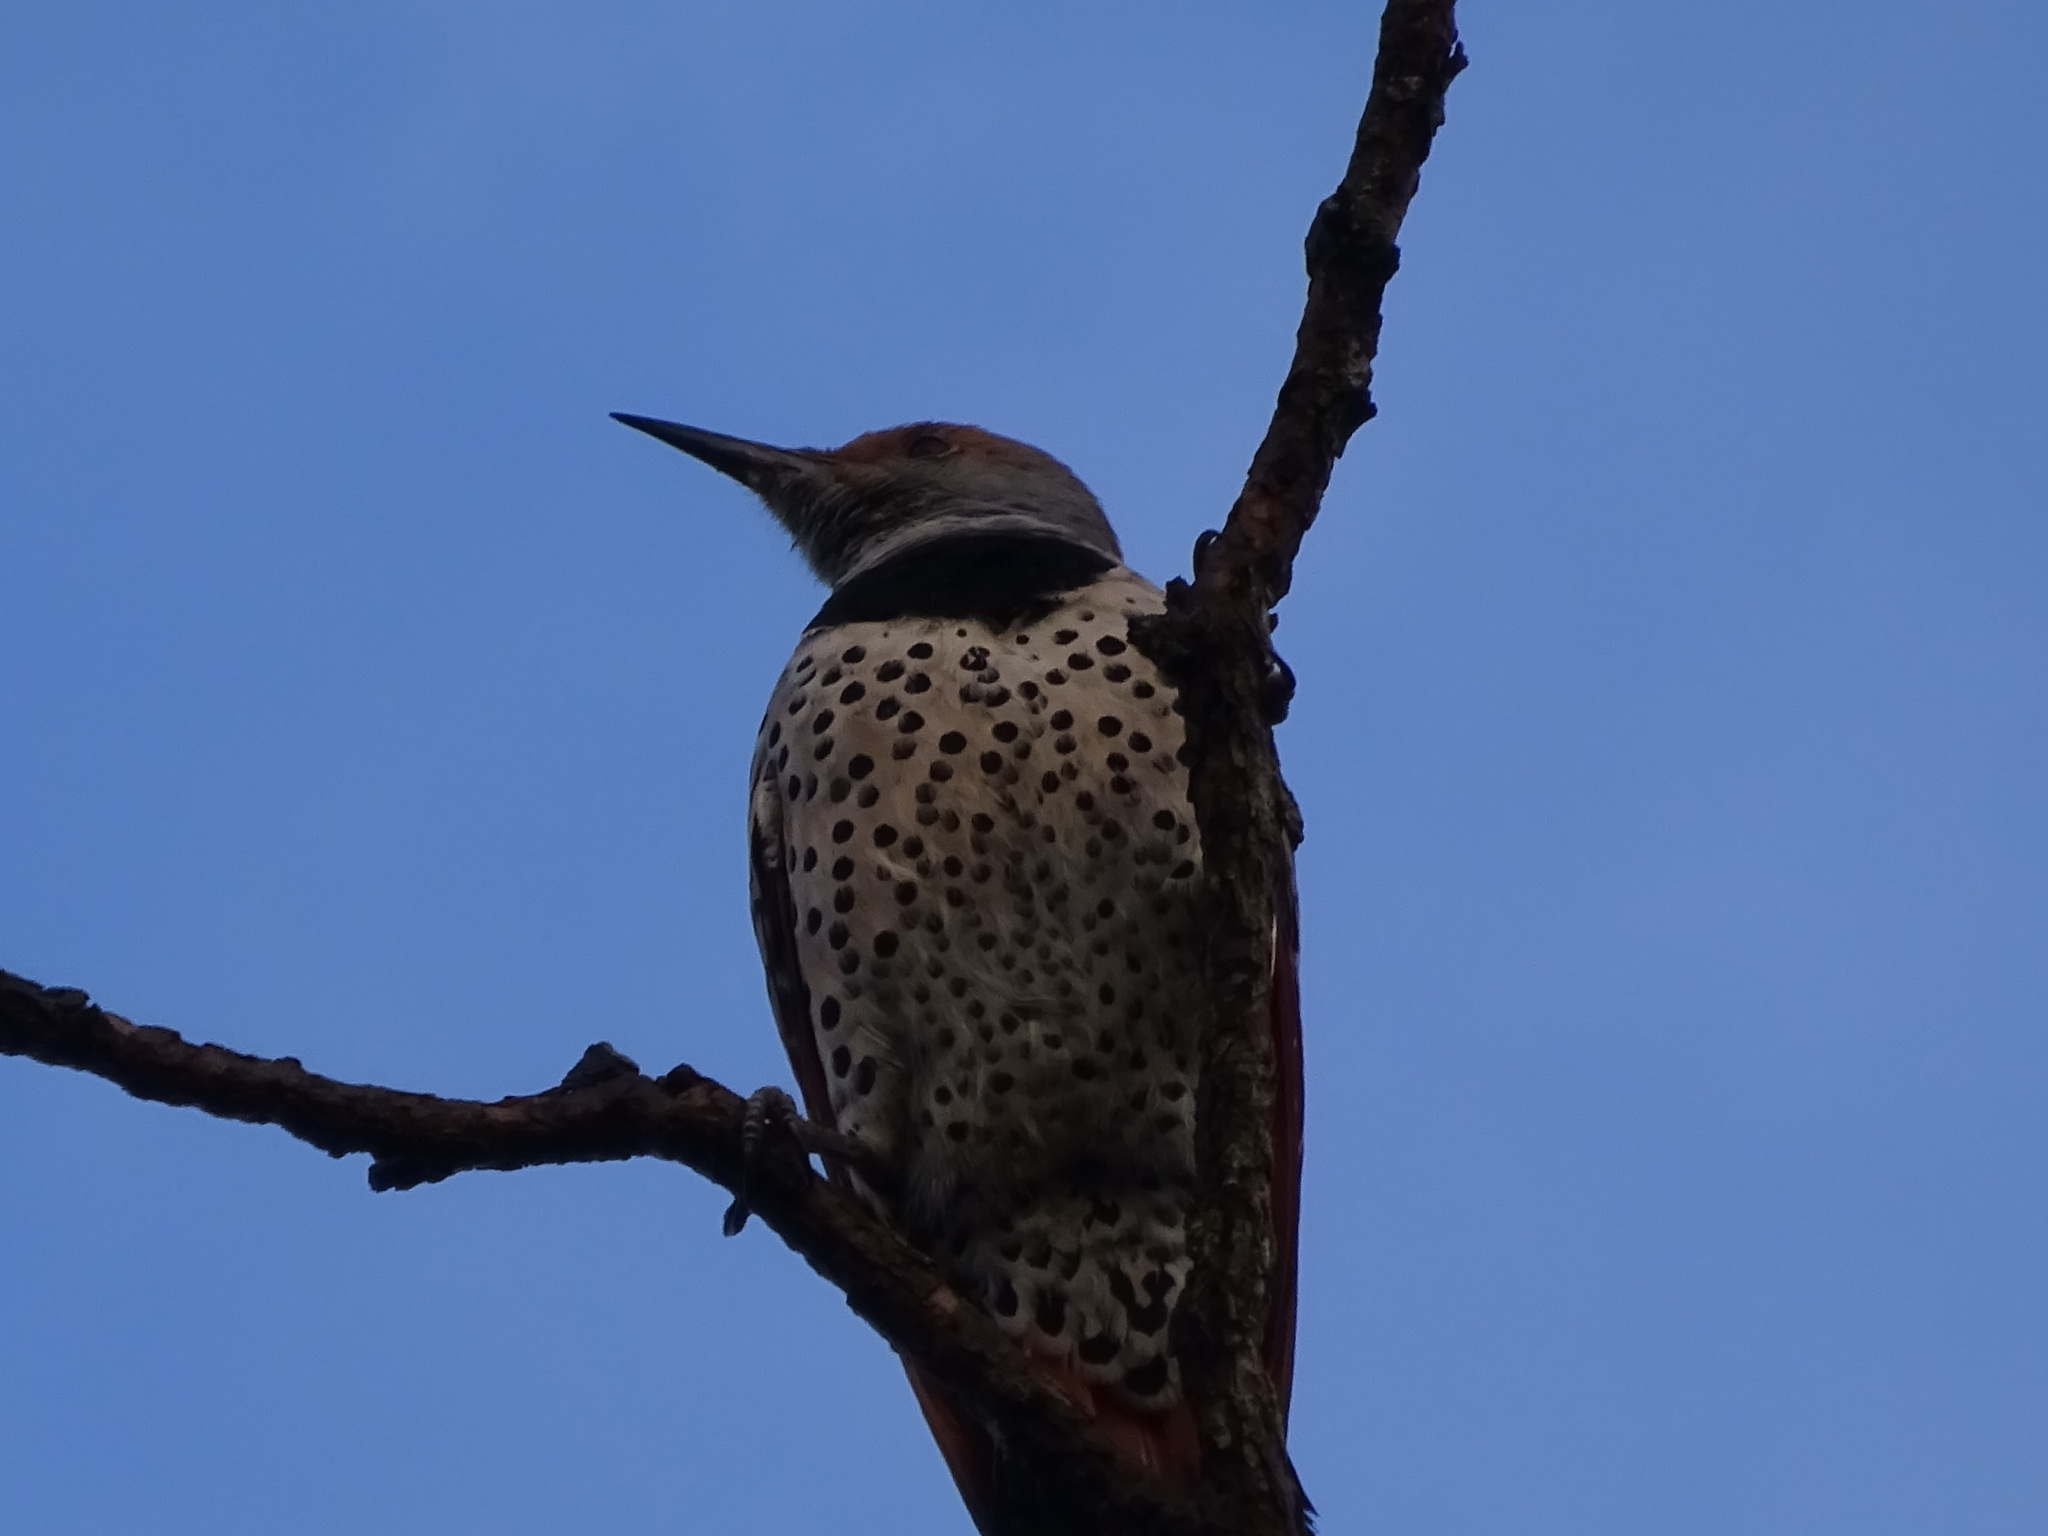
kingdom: Animalia
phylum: Chordata
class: Aves
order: Piciformes
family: Picidae
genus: Colaptes
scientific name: Colaptes auratus
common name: Northern flicker
